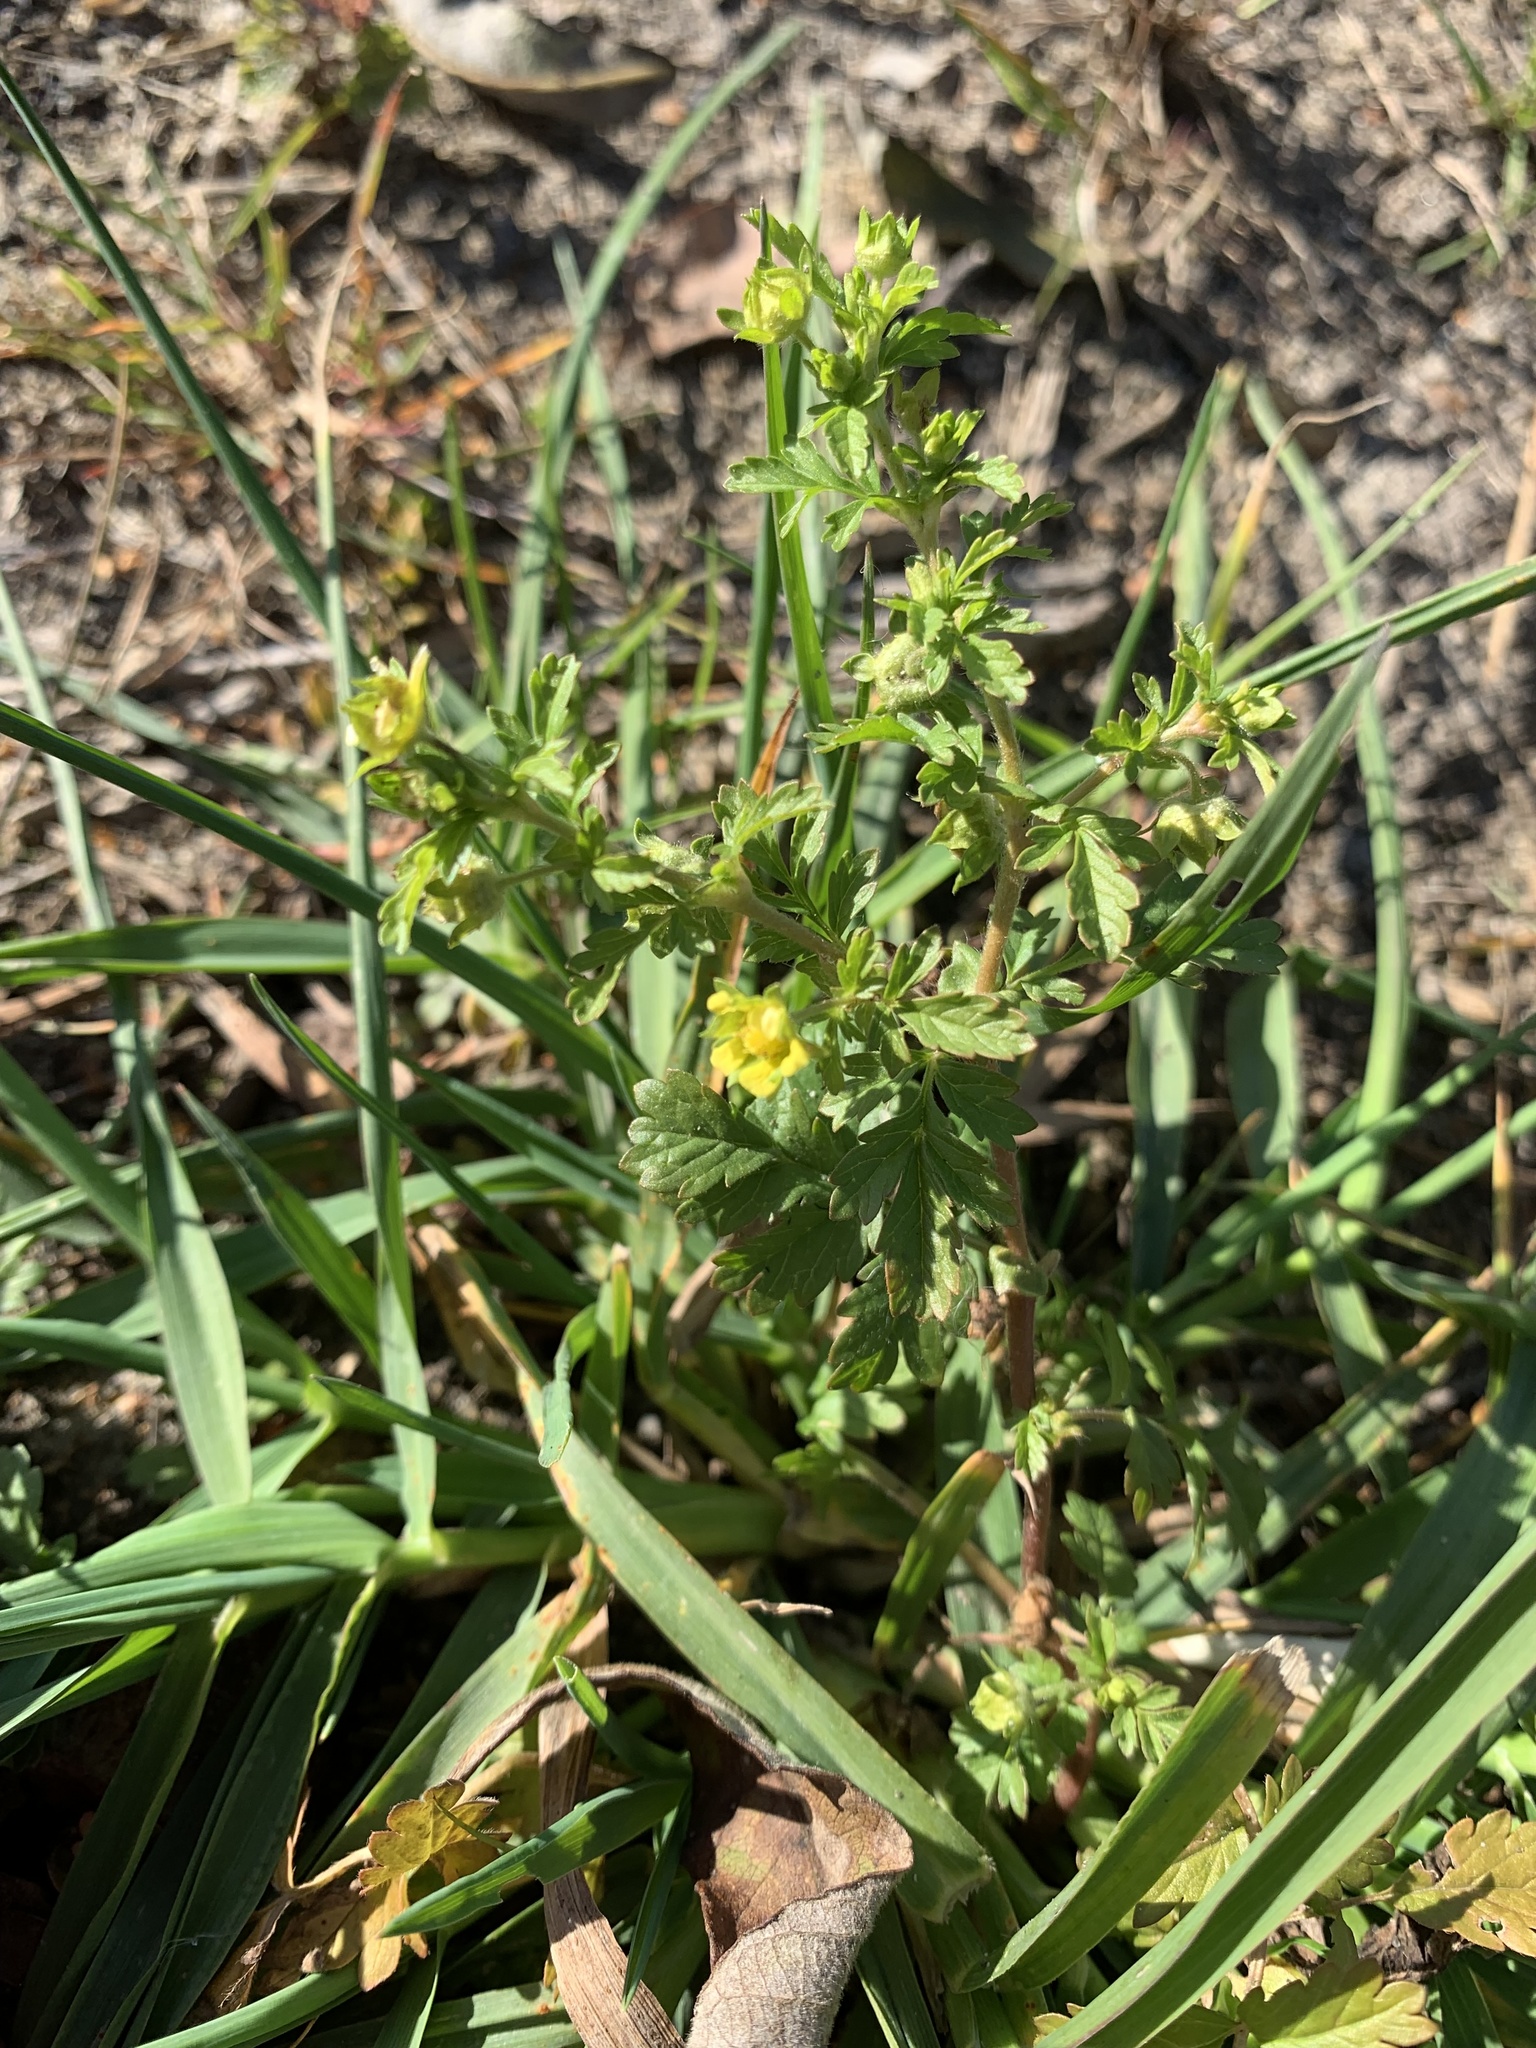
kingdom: Plantae
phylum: Tracheophyta
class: Magnoliopsida
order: Rosales
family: Rosaceae
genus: Potentilla
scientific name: Potentilla supina
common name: Prostrate cinquefoil
